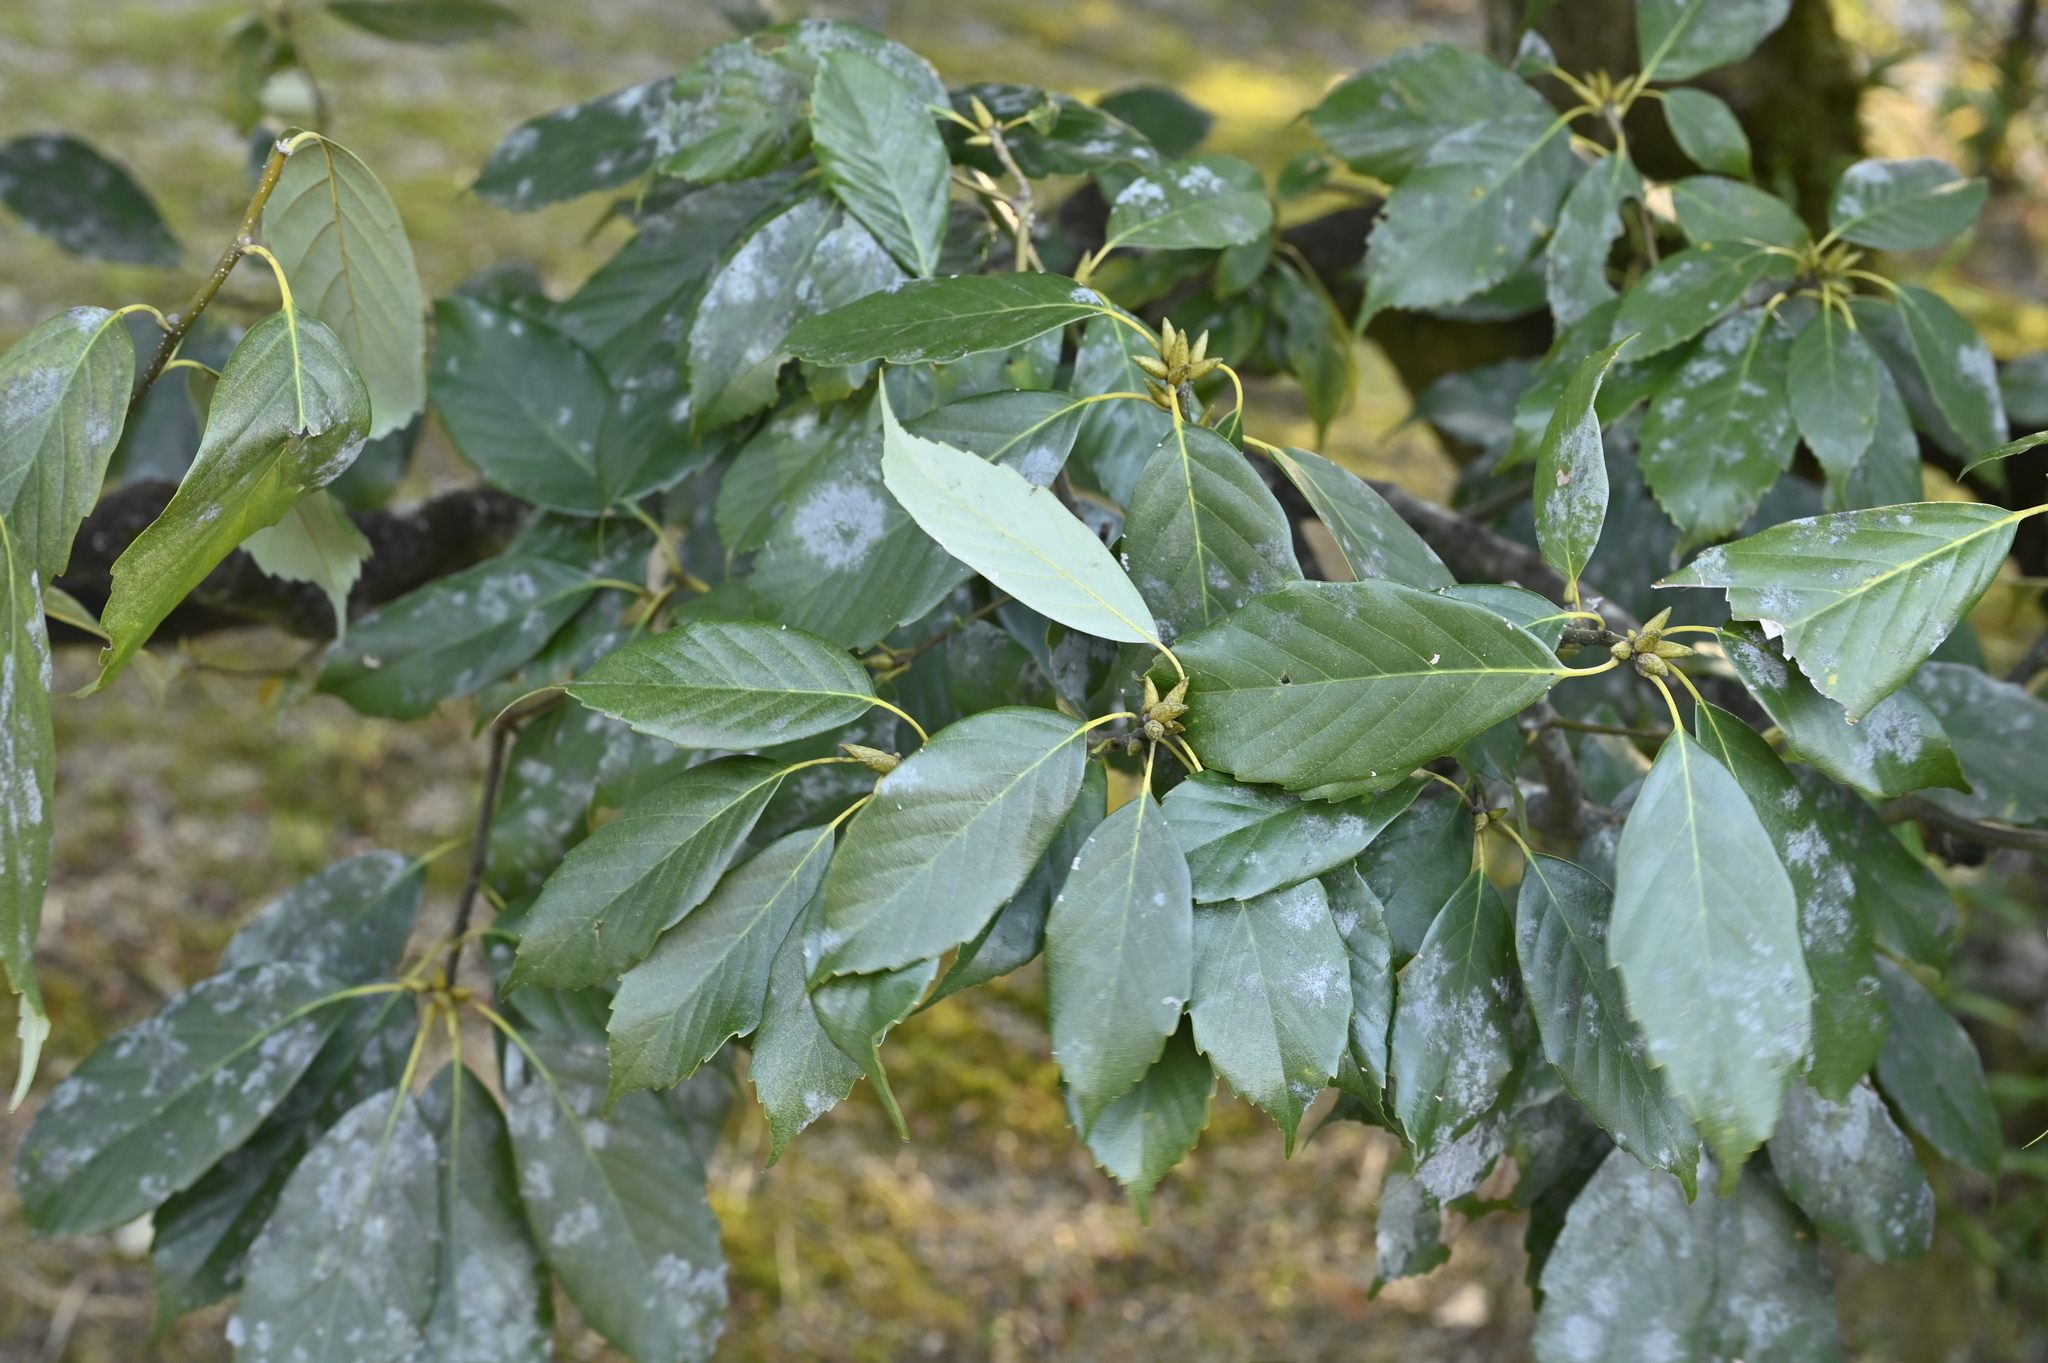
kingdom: Plantae
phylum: Tracheophyta
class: Magnoliopsida
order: Fagales
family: Fagaceae
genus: Quercus
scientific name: Quercus glauca
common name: Ring-cup oak
